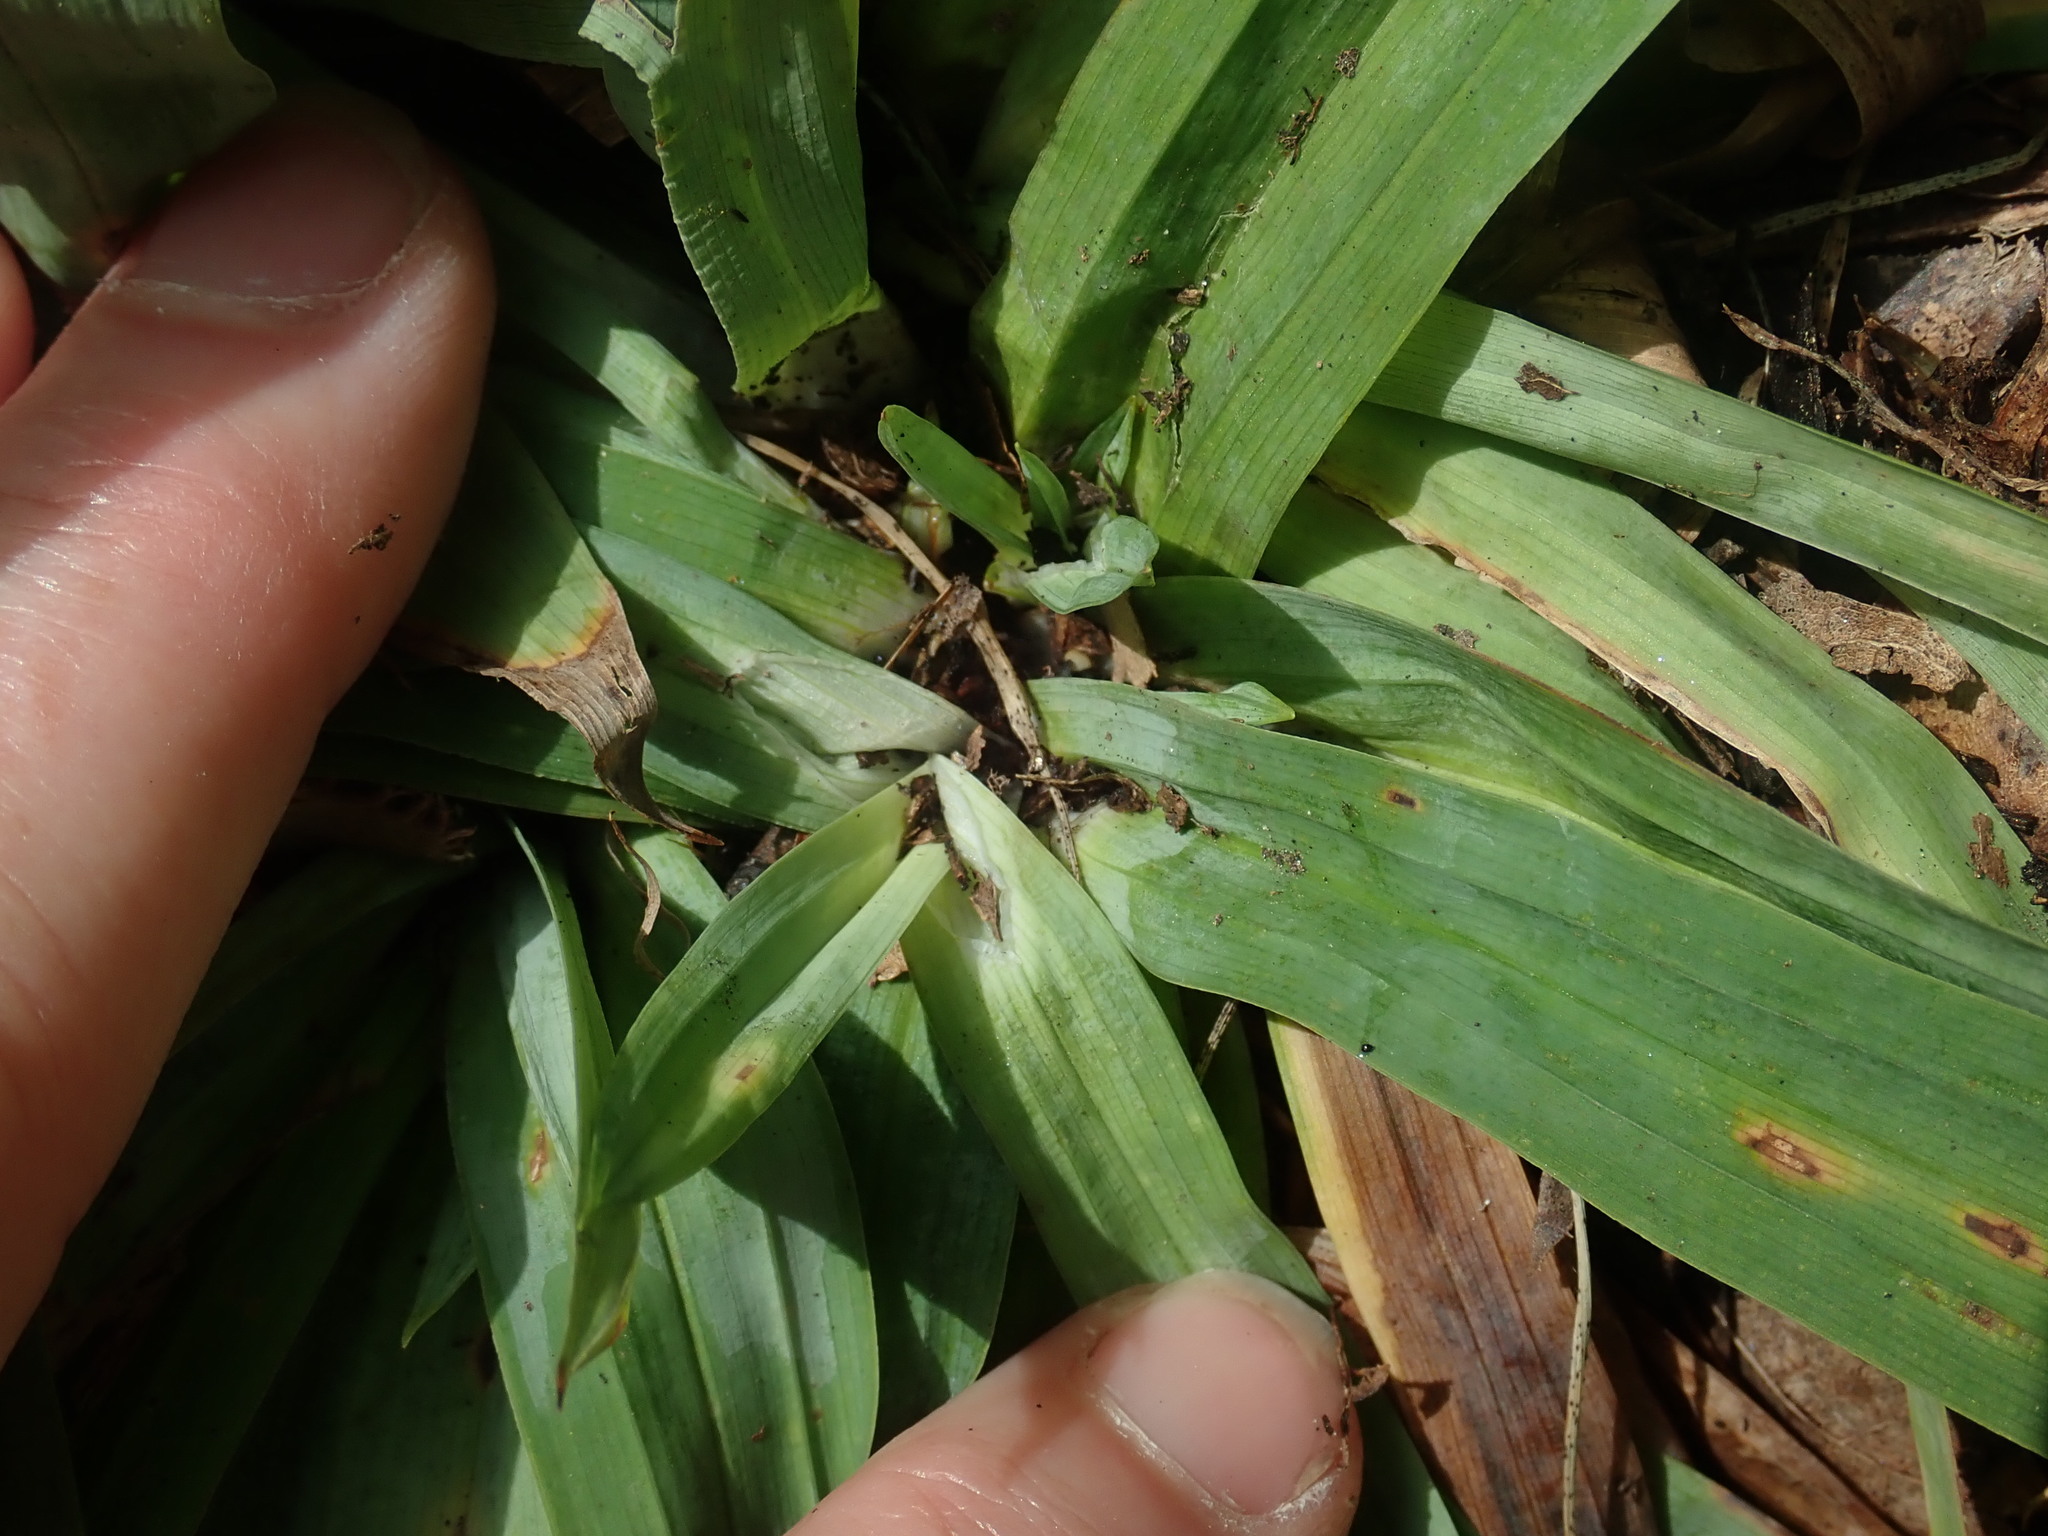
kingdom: Plantae
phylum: Tracheophyta
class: Liliopsida
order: Poales
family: Cyperaceae
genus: Carex
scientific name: Carex platyphylla
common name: Broad-leaved sedge
